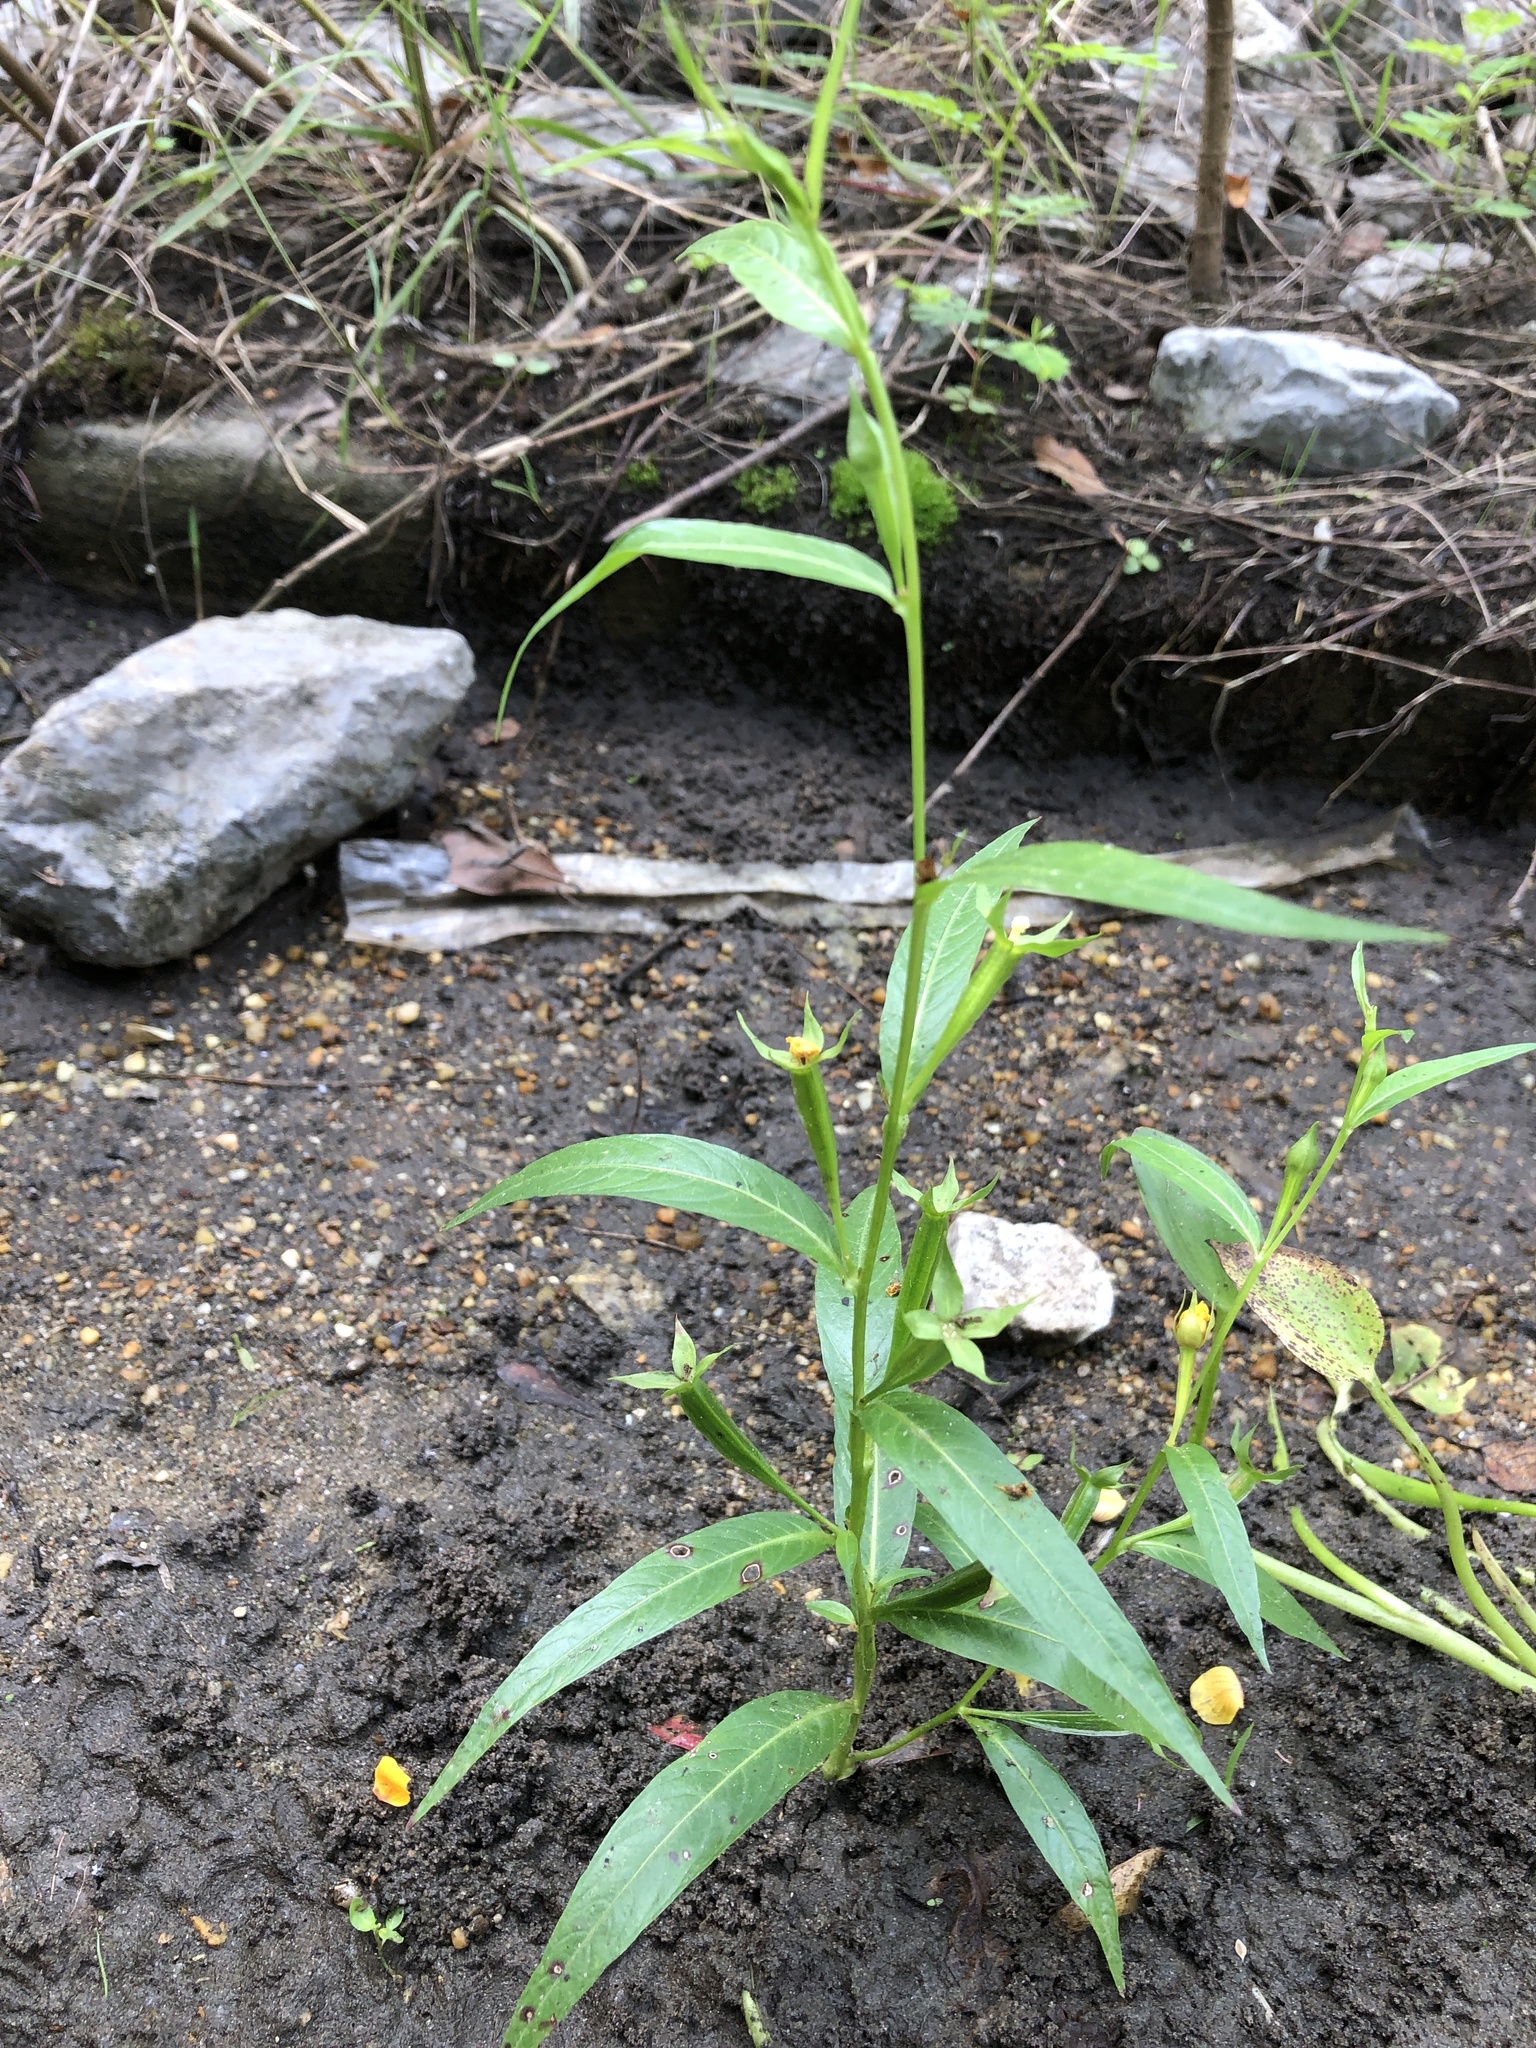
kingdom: Plantae
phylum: Tracheophyta
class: Magnoliopsida
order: Myrtales
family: Onagraceae
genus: Ludwigia
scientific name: Ludwigia decurrens
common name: Winged water-primrose
